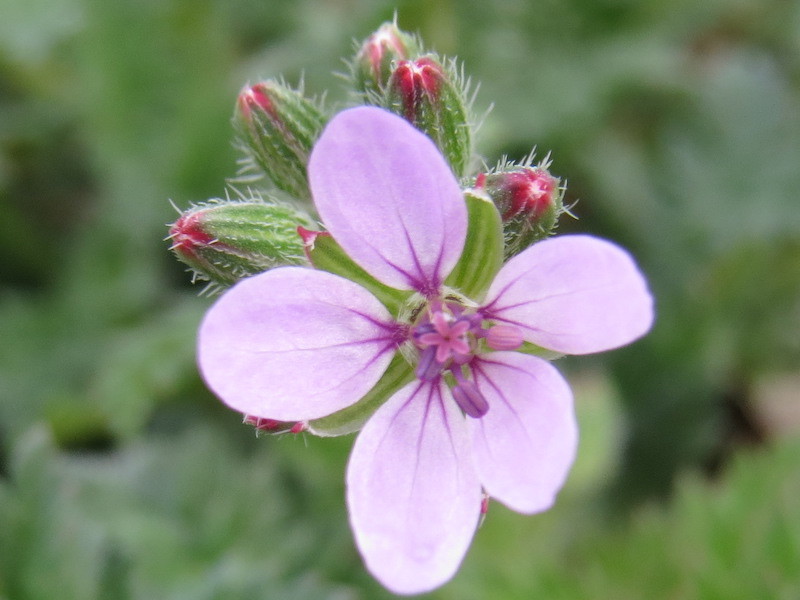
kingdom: Plantae
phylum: Tracheophyta
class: Magnoliopsida
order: Geraniales
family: Geraniaceae
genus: Erodium
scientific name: Erodium cicutarium
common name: Common stork's-bill
